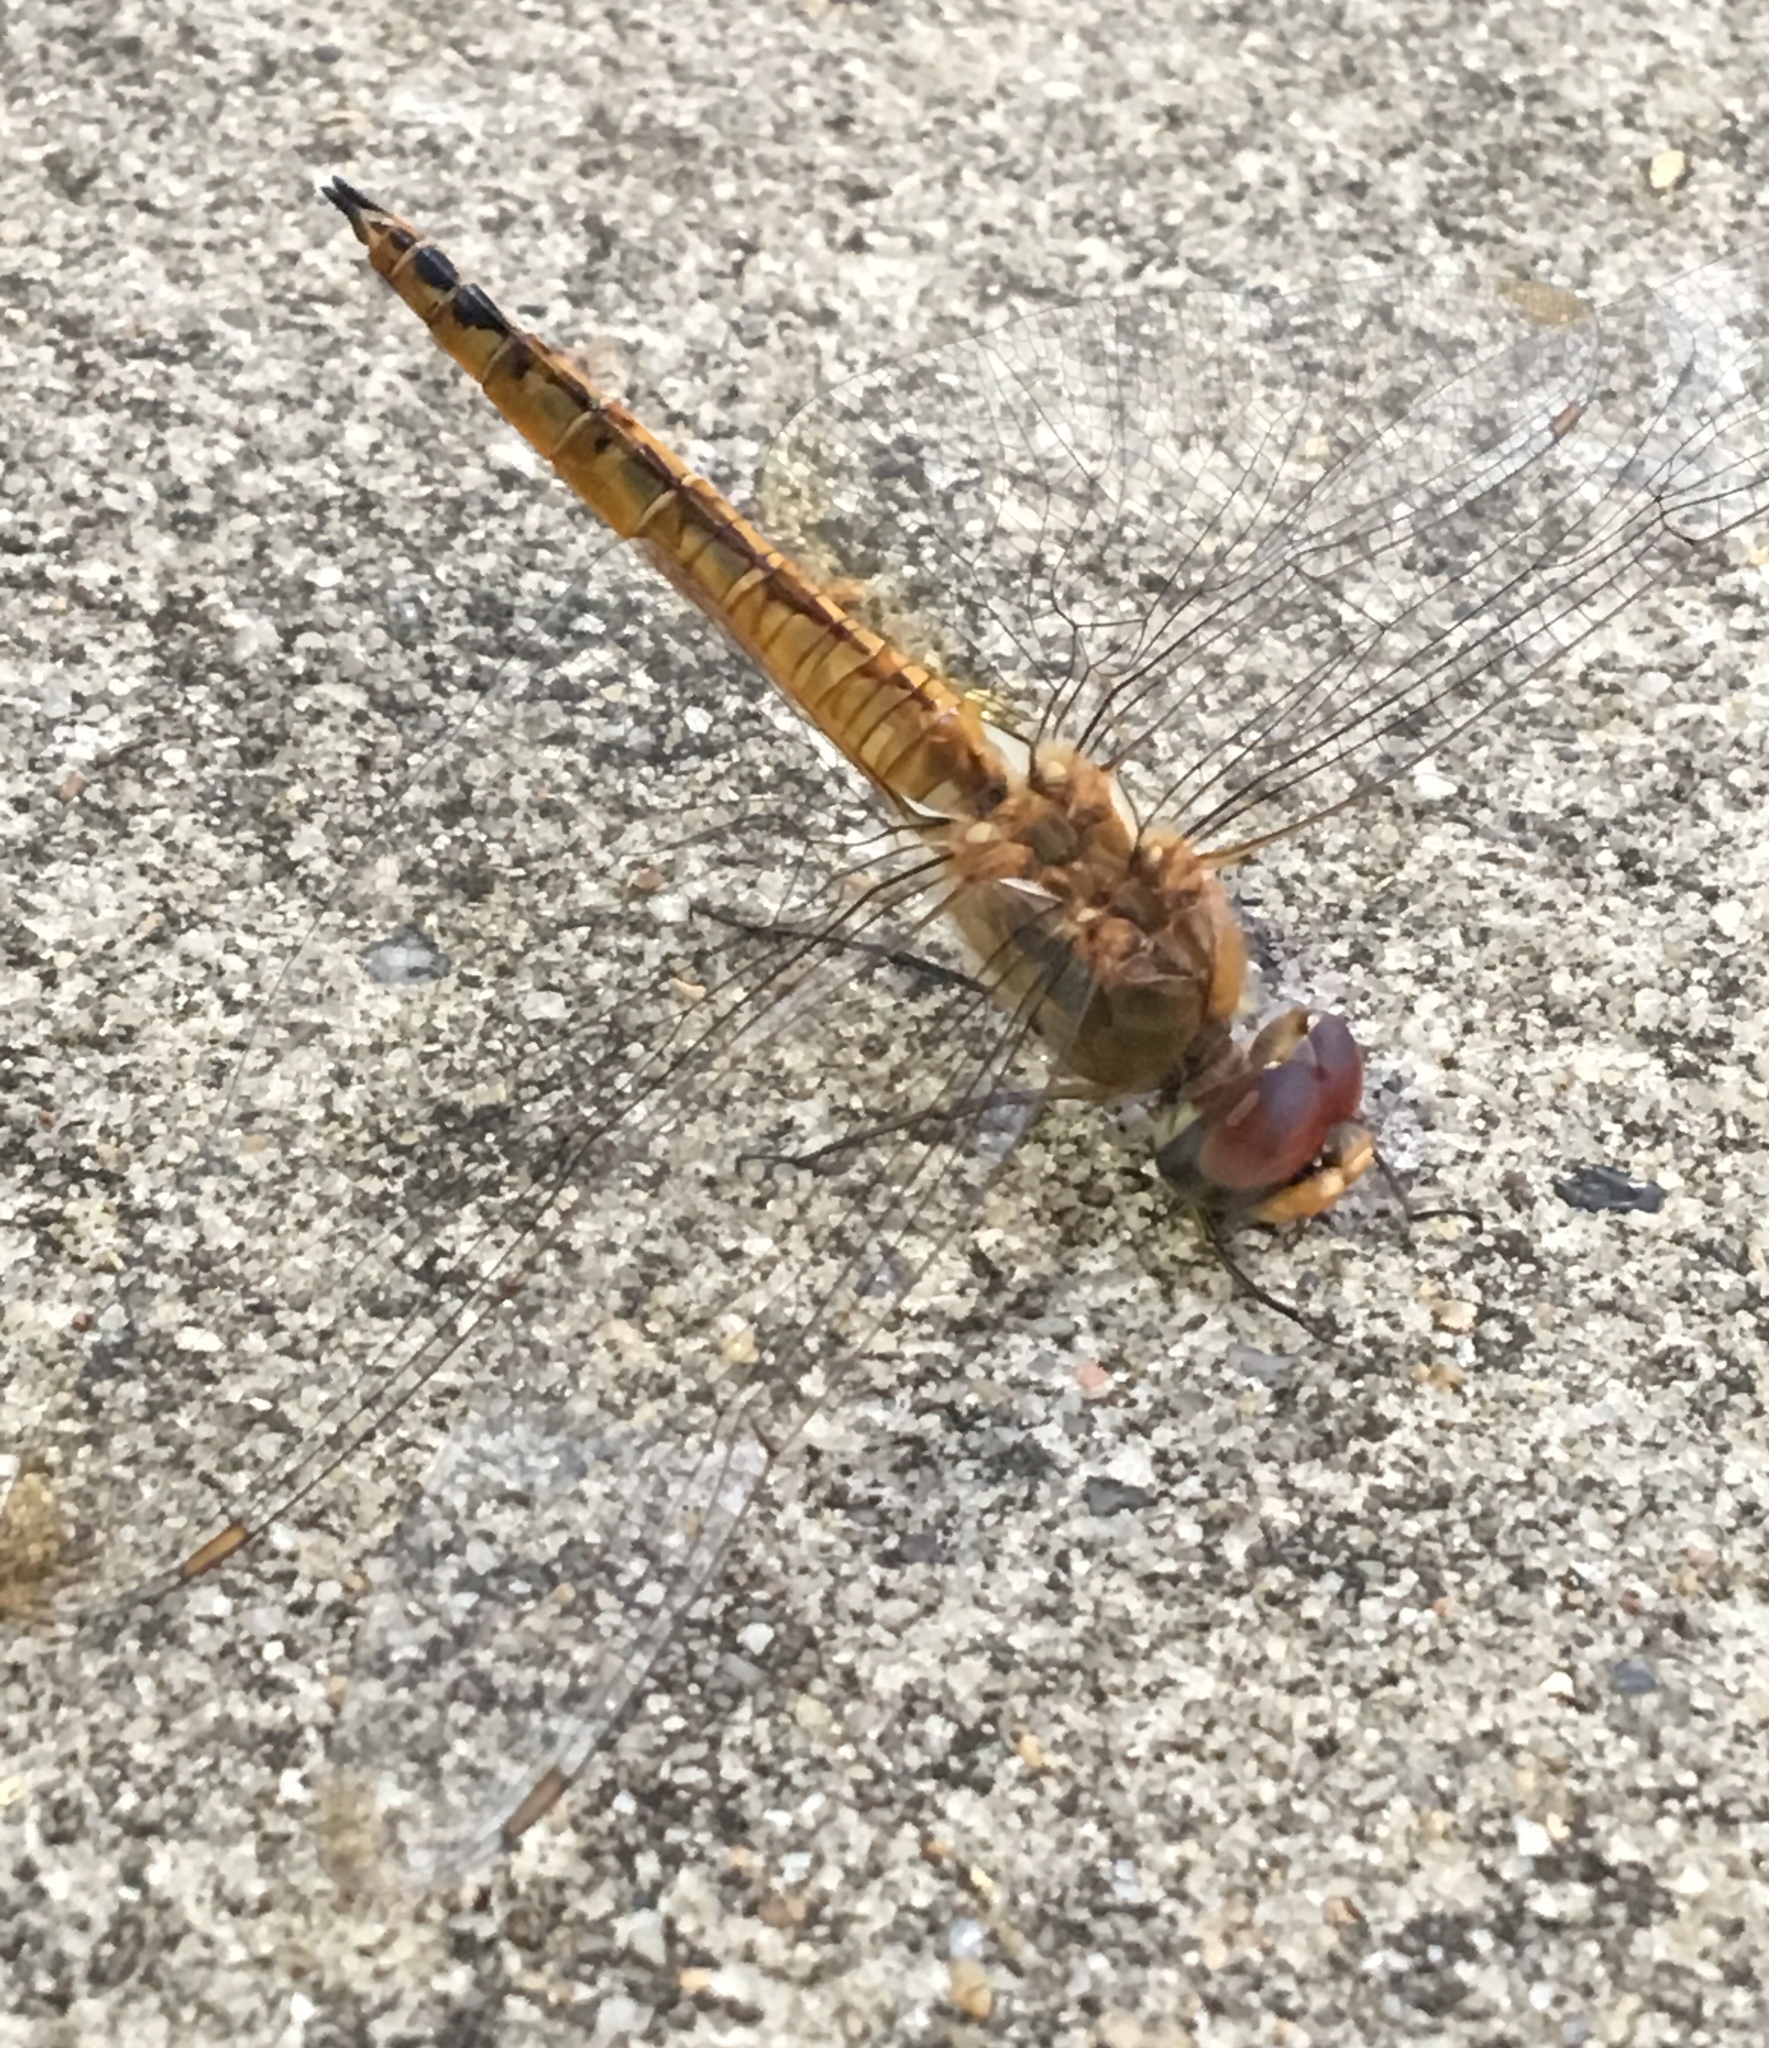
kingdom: Animalia
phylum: Arthropoda
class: Insecta
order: Odonata
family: Libellulidae
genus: Pantala
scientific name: Pantala flavescens
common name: Wandering glider
